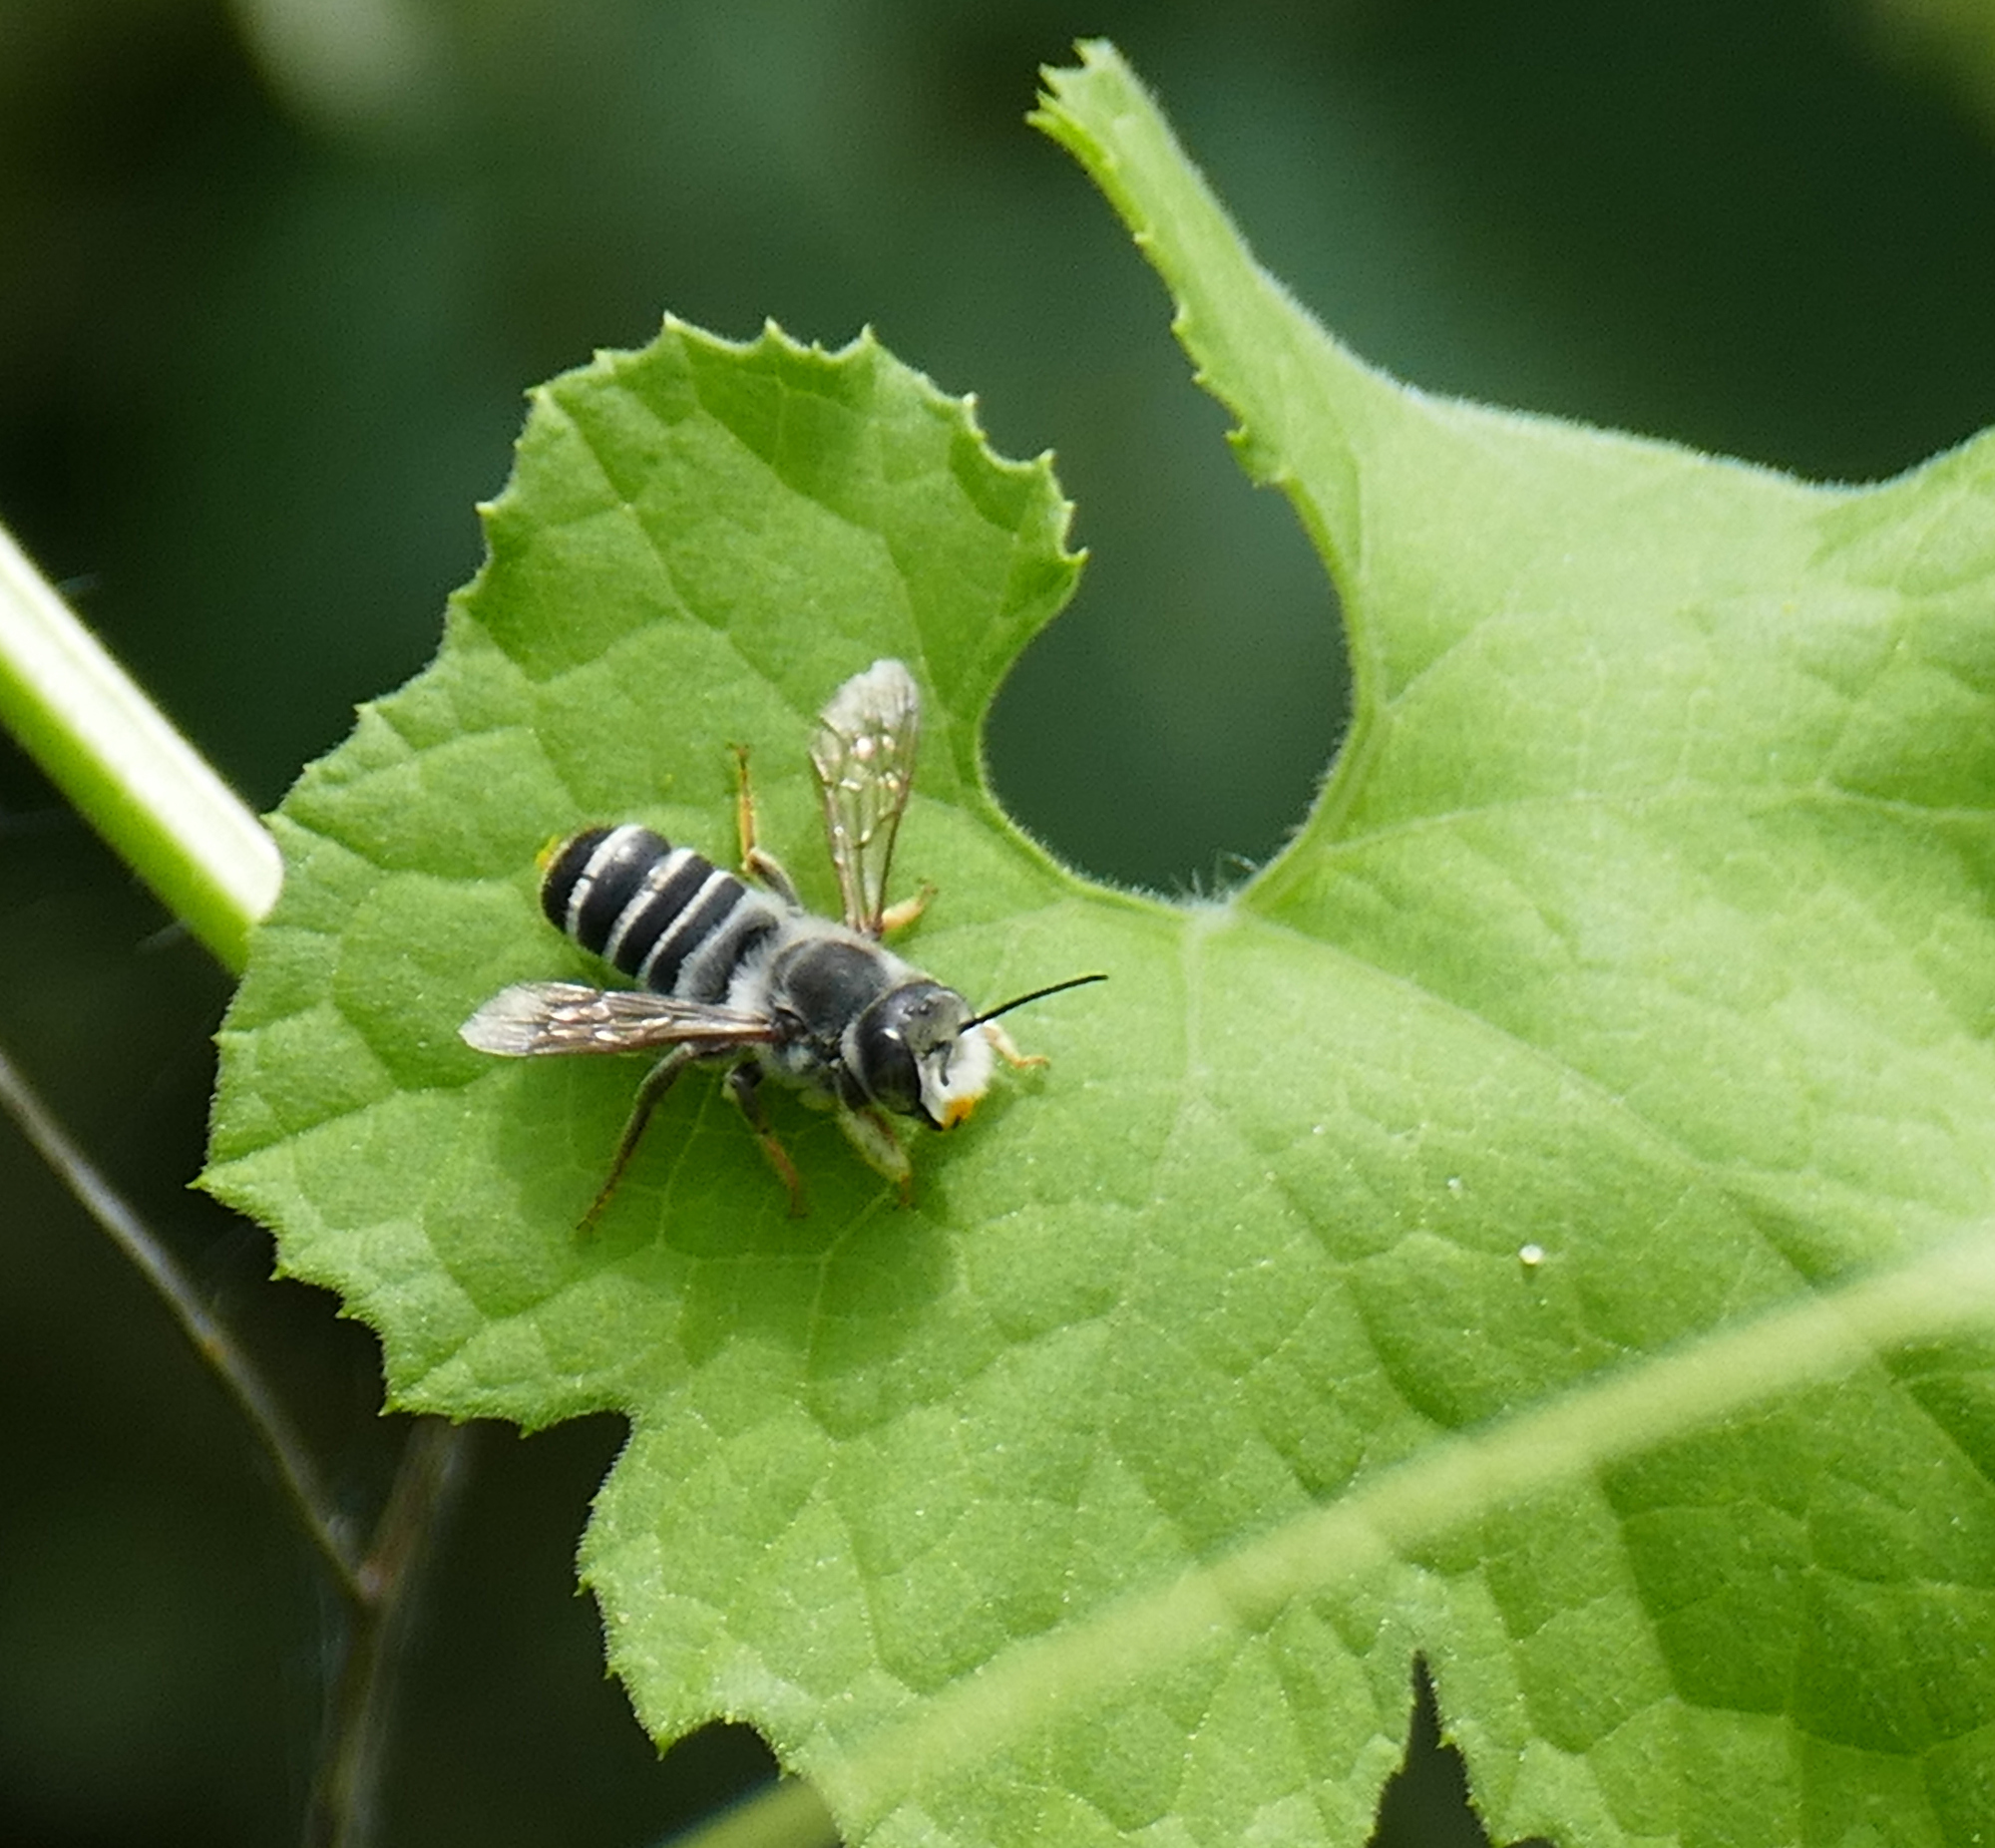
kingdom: Animalia
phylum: Arthropoda
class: Insecta
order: Hymenoptera
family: Megachilidae
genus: Megachile
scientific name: Megachile inimica
